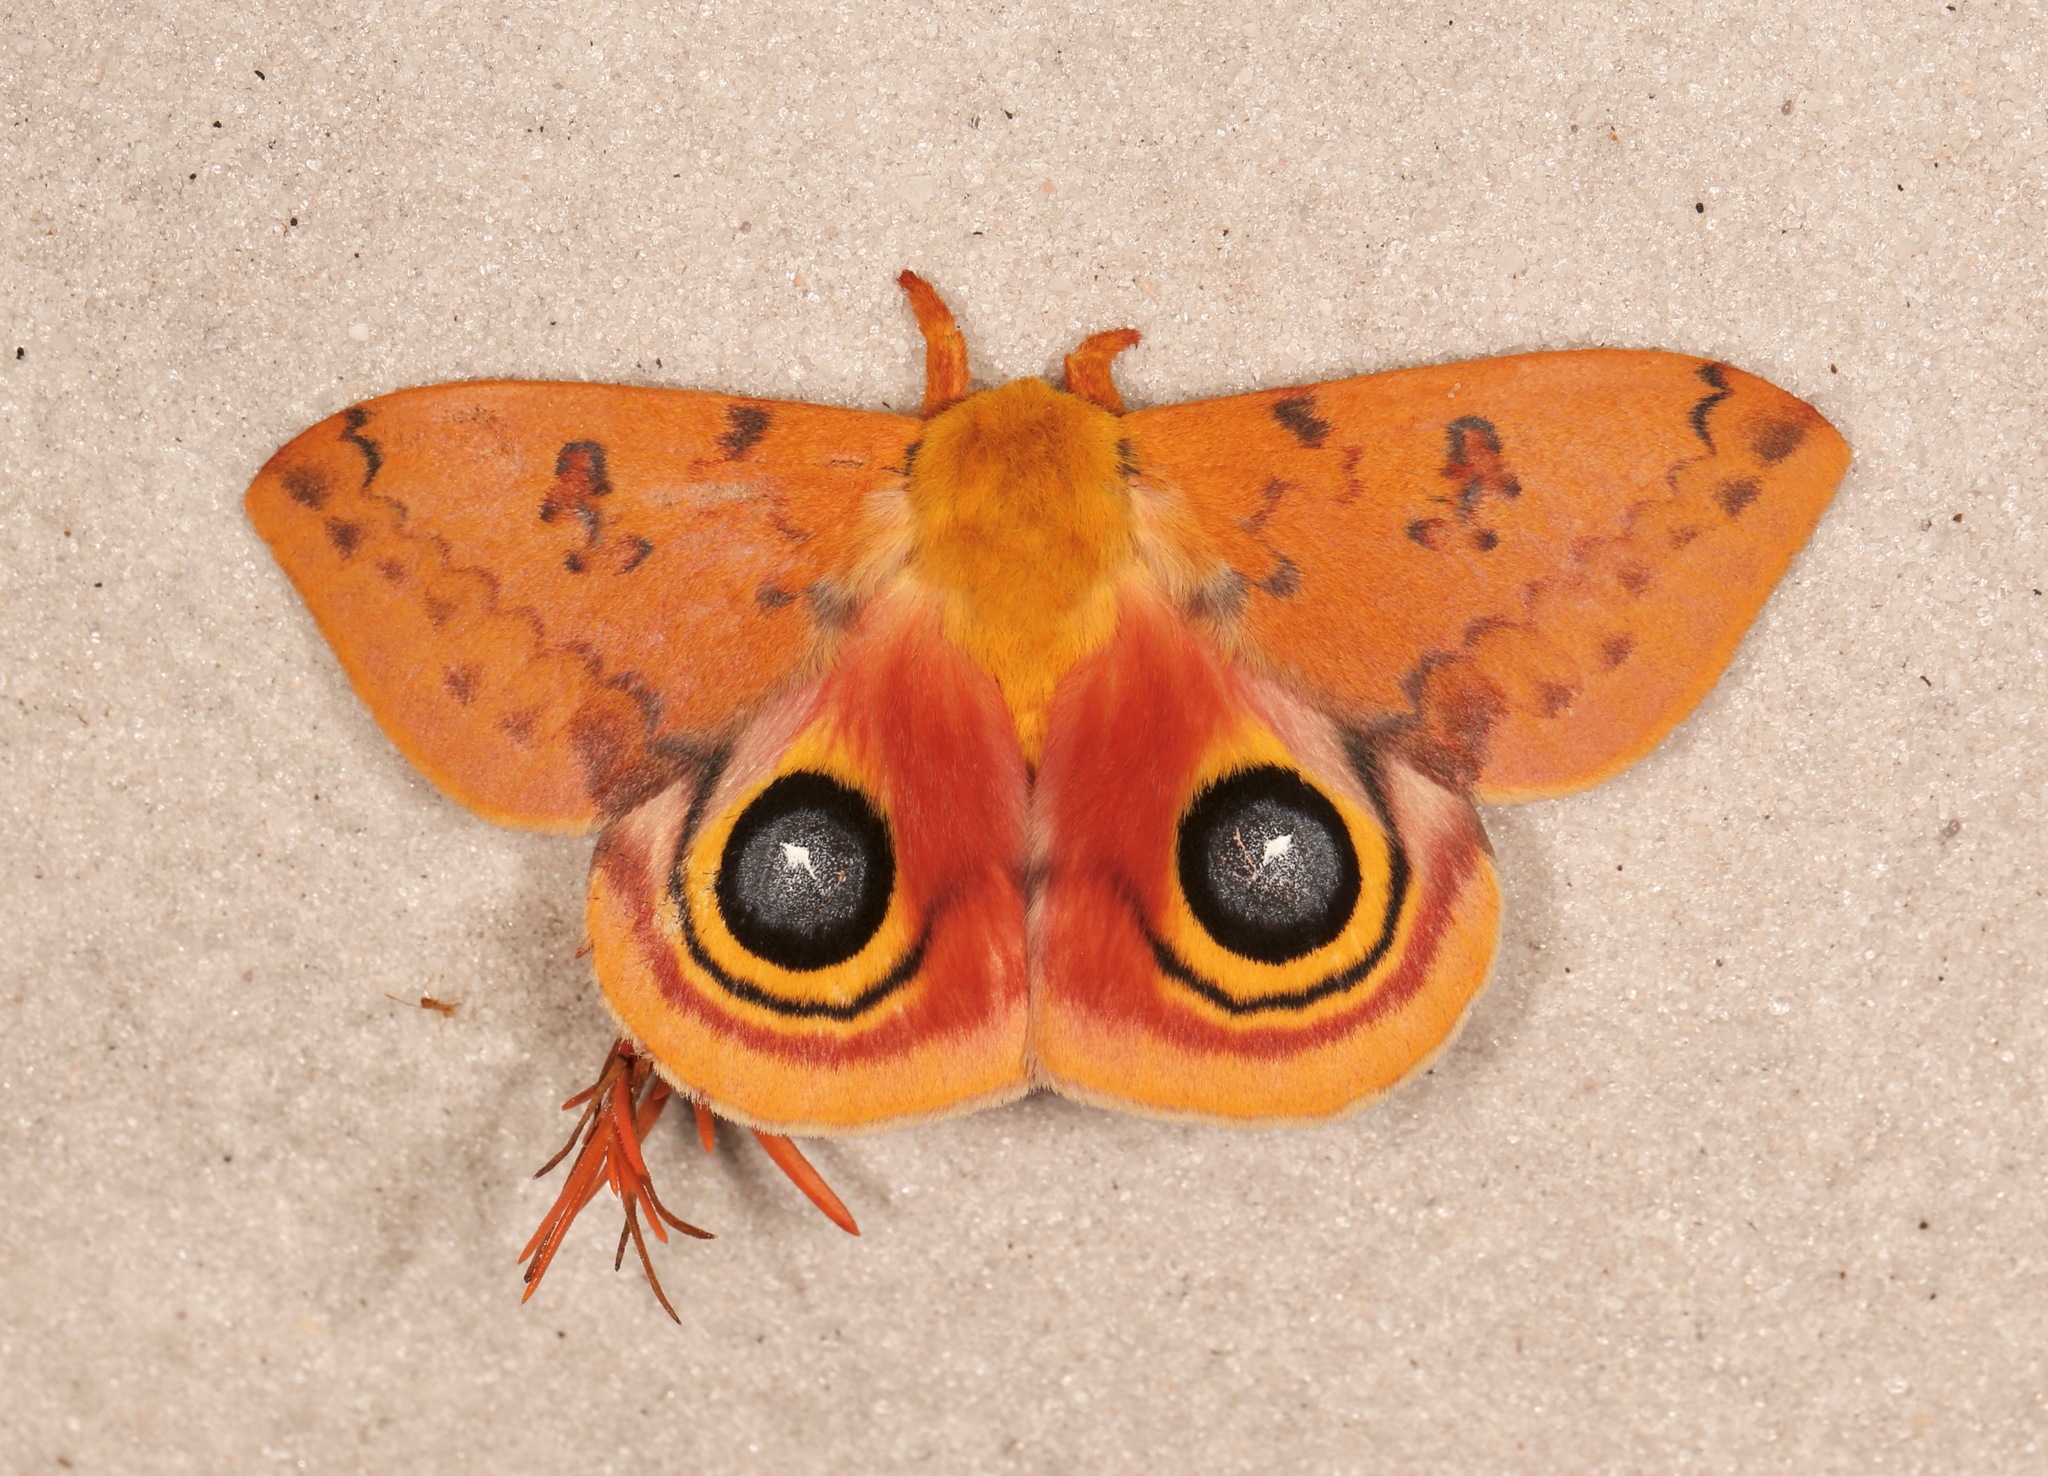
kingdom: Animalia
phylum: Arthropoda
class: Insecta
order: Lepidoptera
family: Saturniidae
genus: Automeris
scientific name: Automeris io
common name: Io moth
